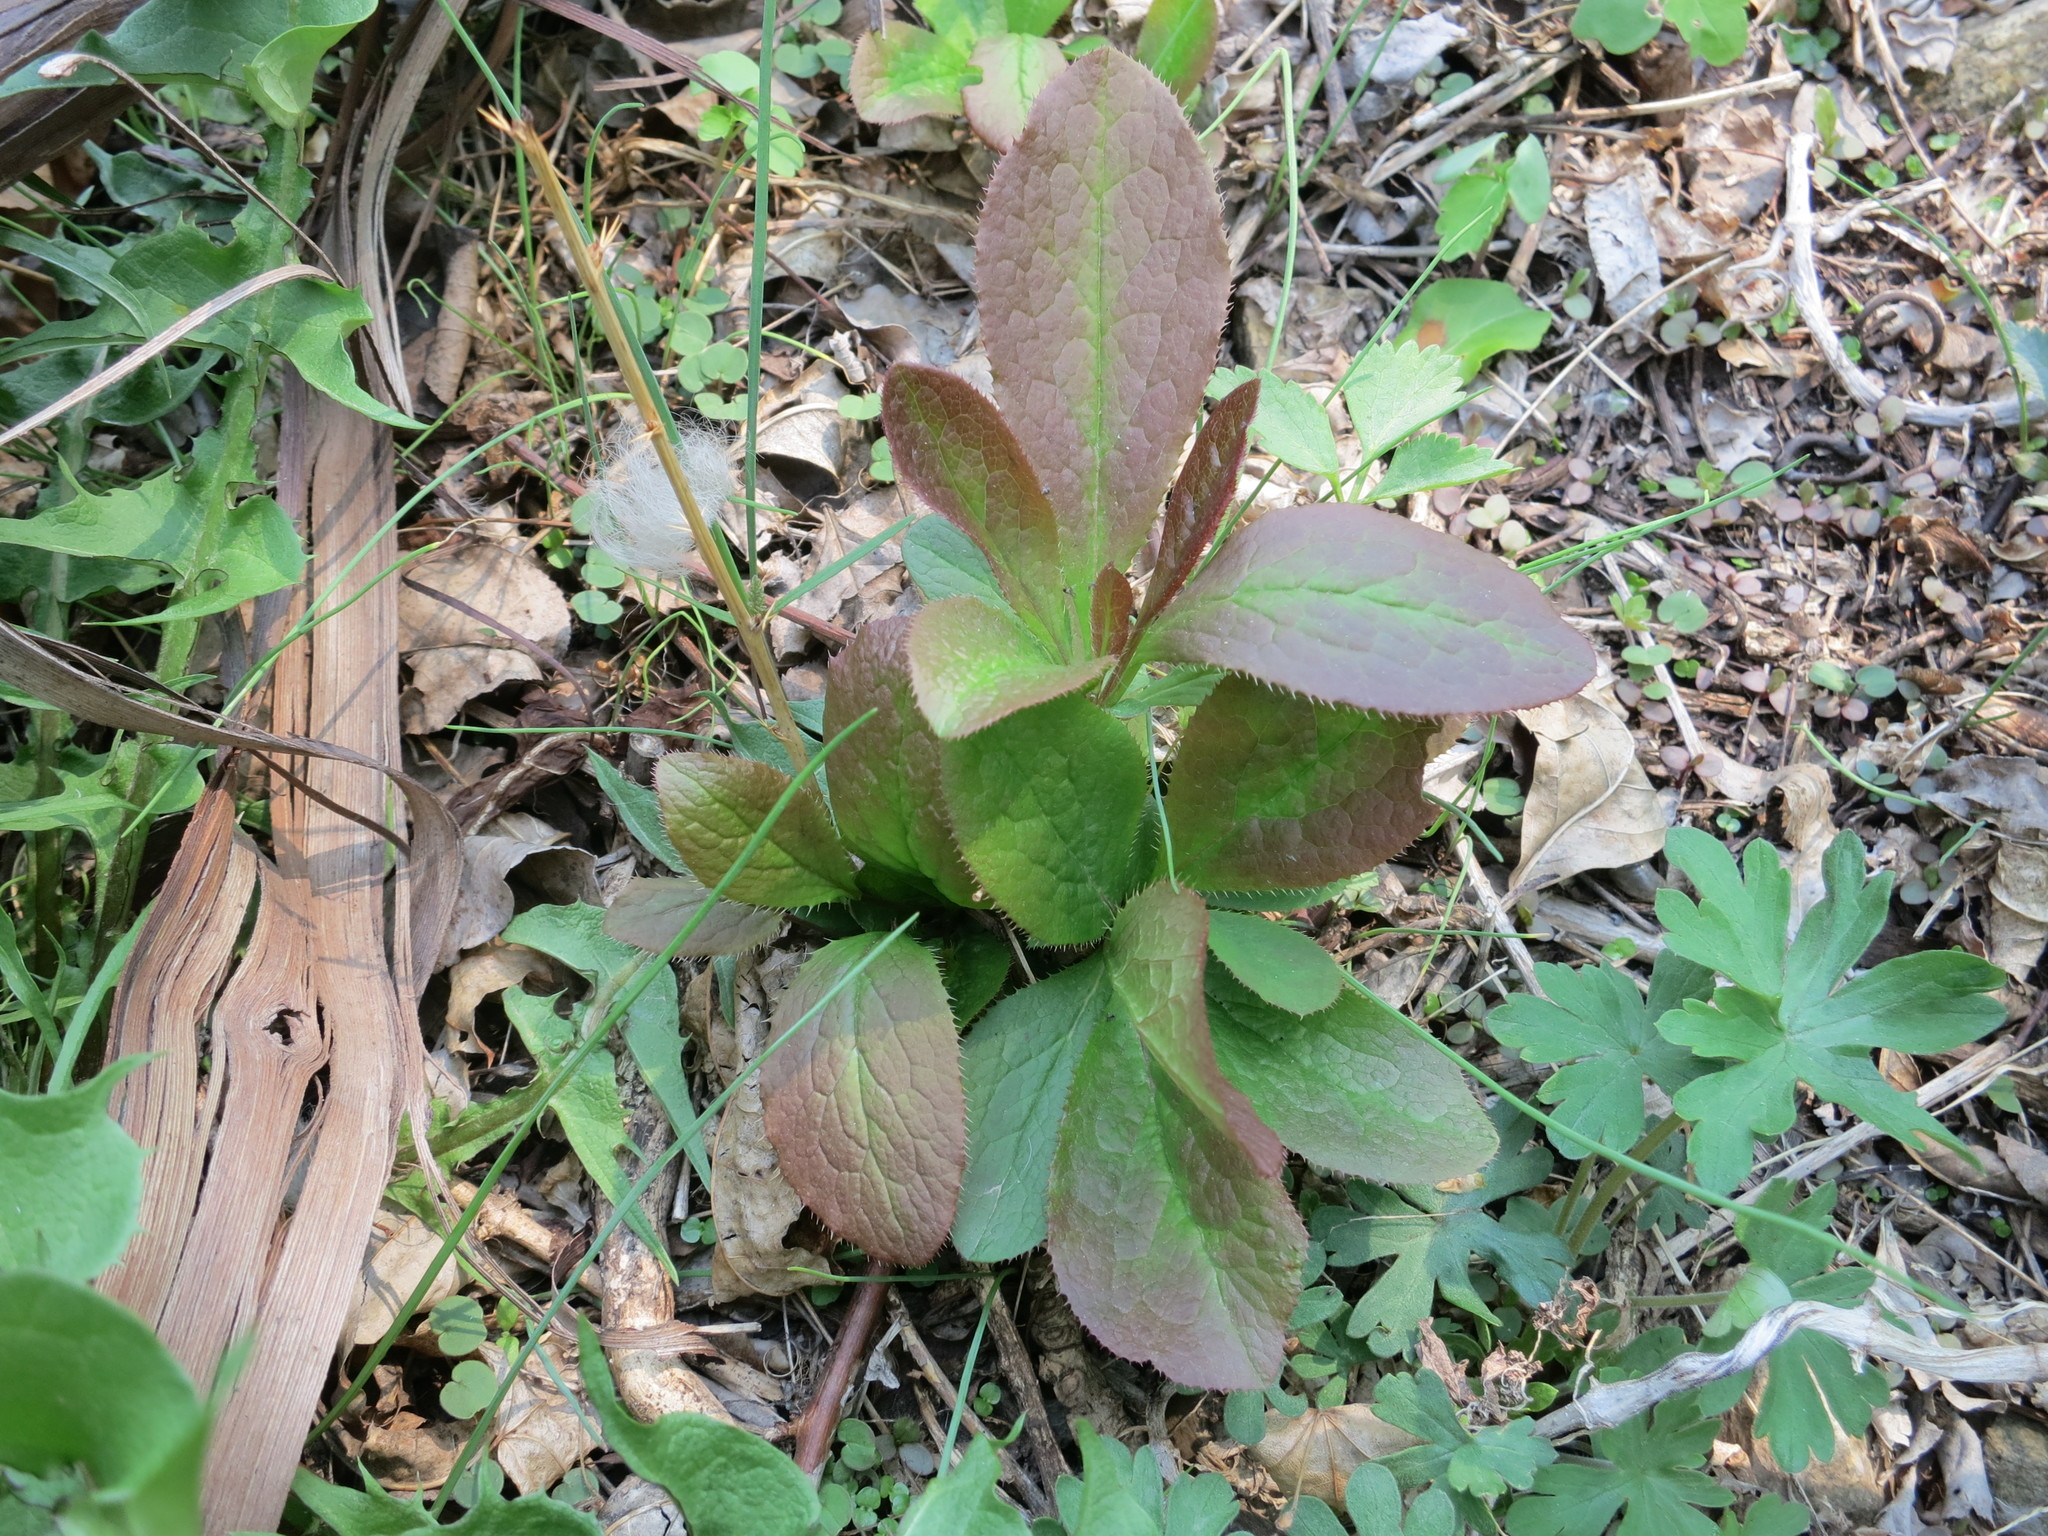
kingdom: Plantae
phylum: Tracheophyta
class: Magnoliopsida
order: Ranunculales
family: Berberidaceae
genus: Berberis
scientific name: Berberis amurensis
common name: Amur barberry
